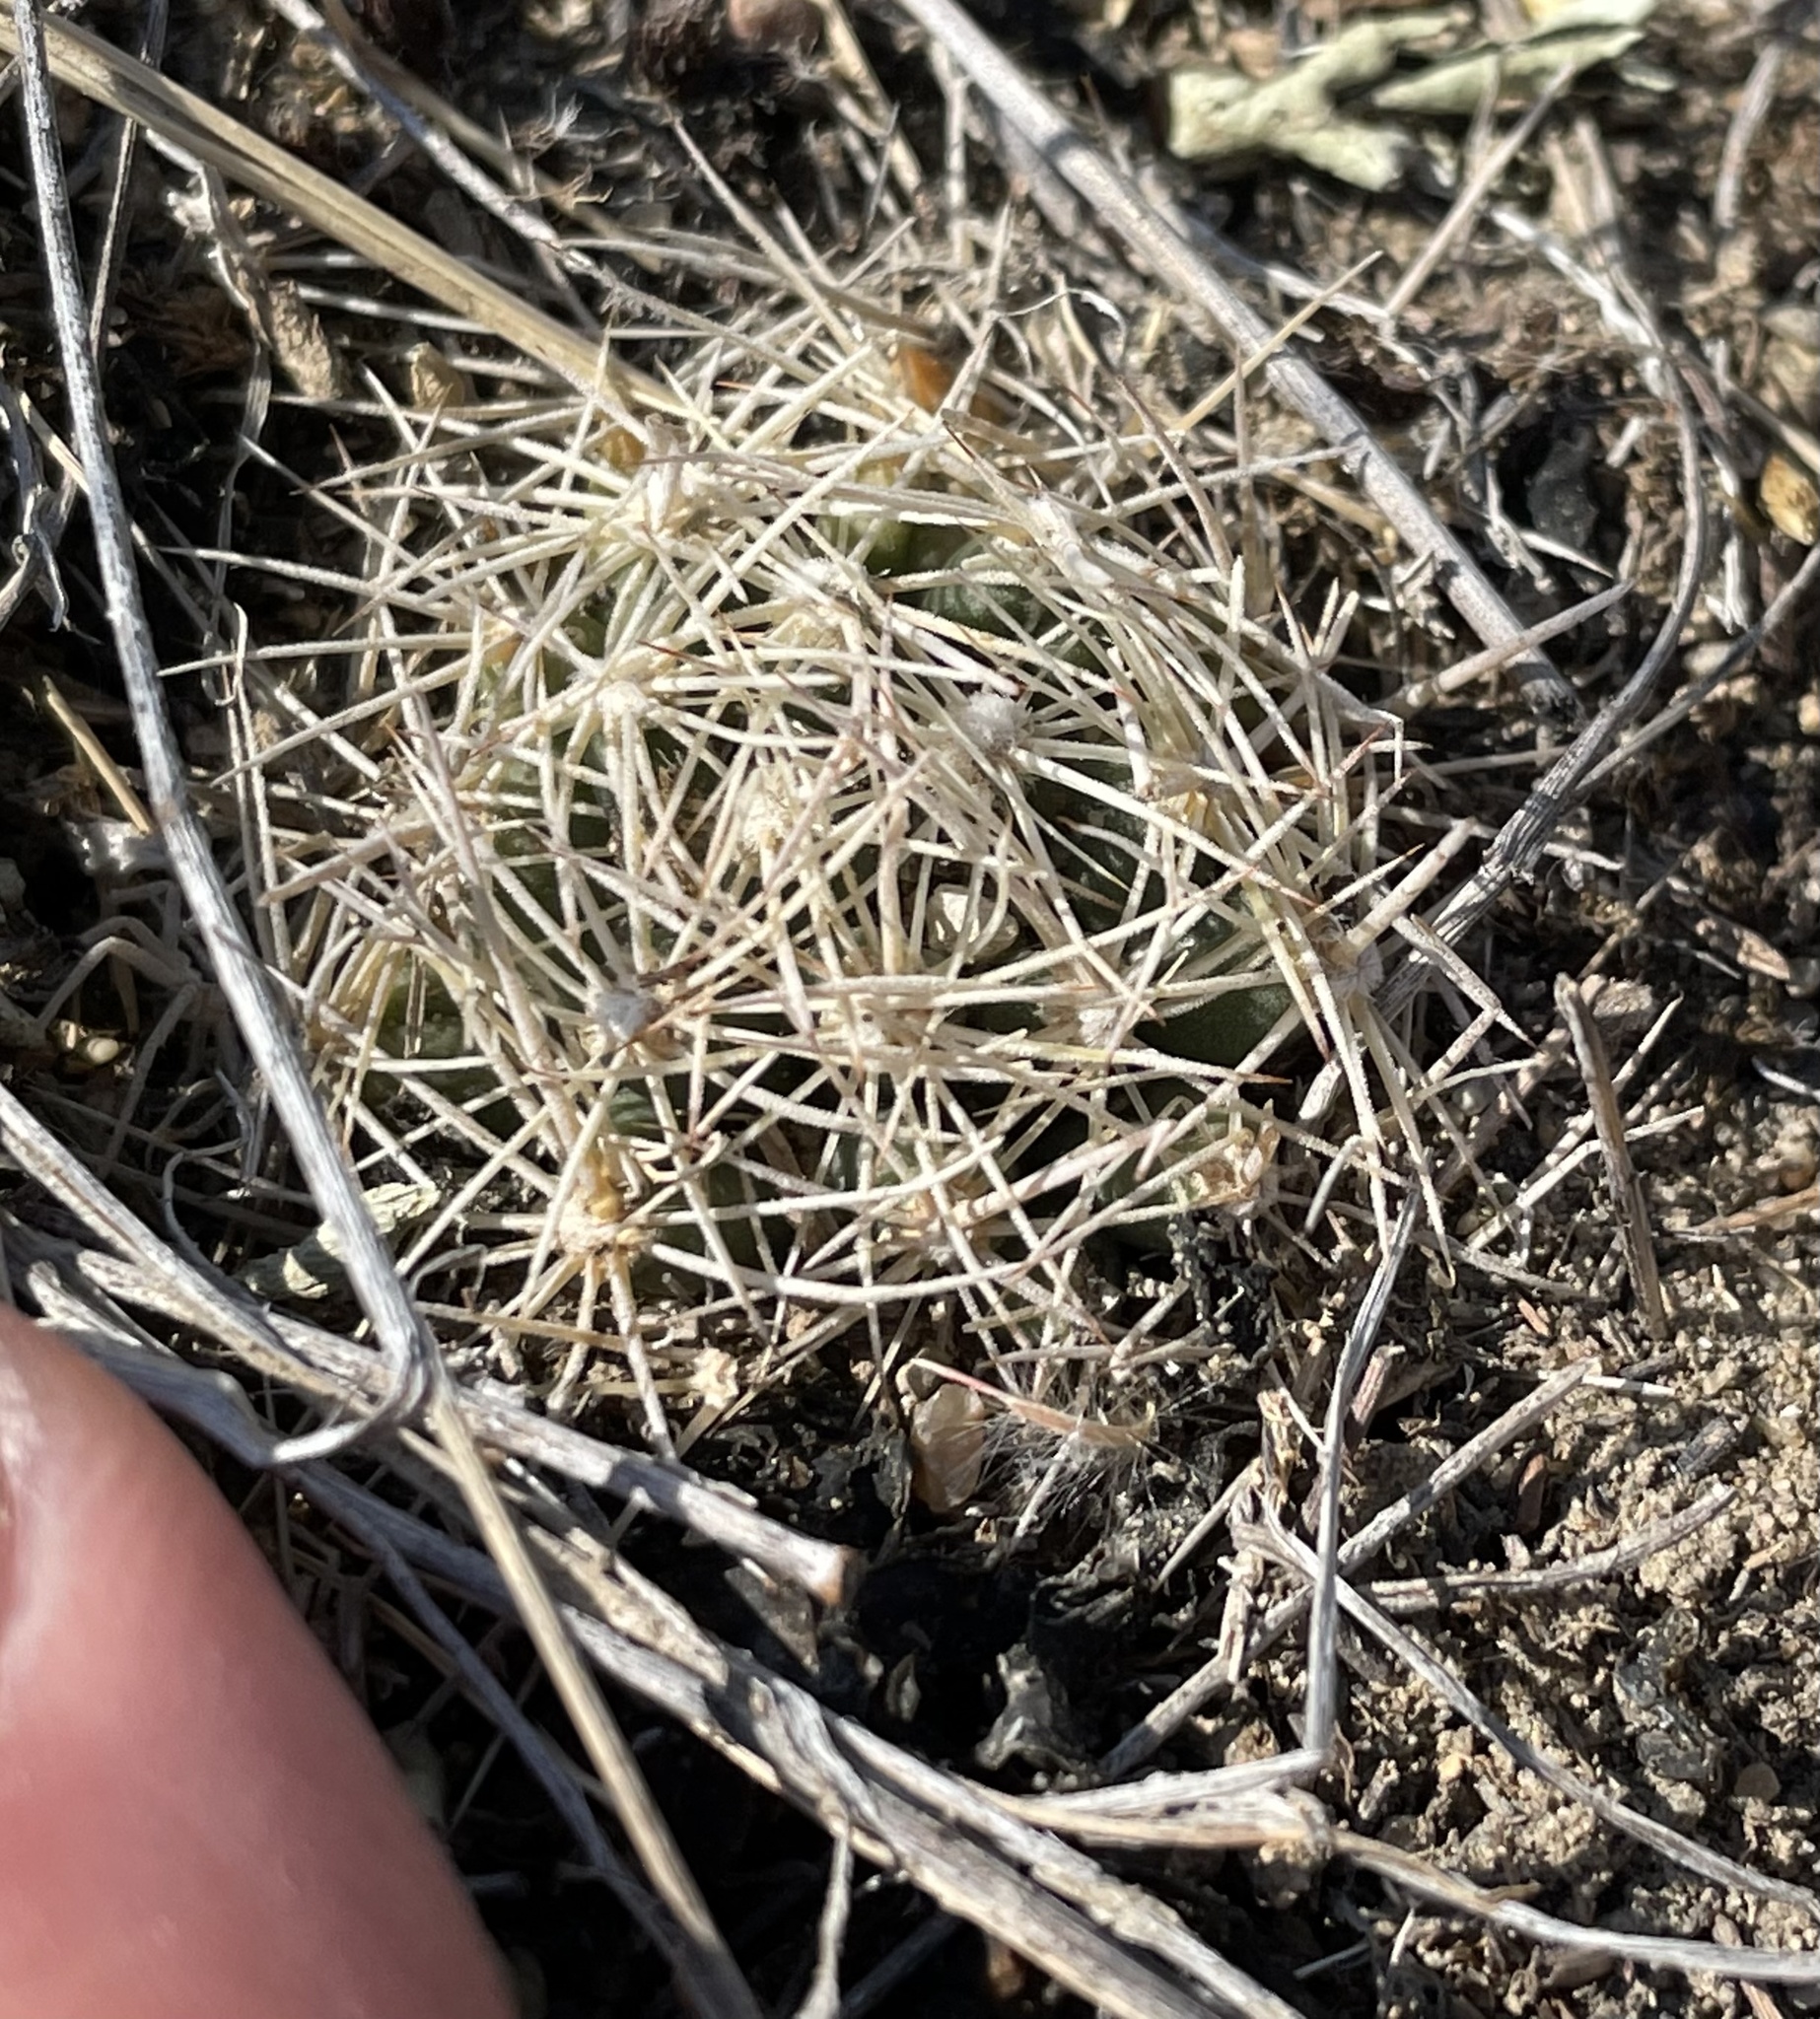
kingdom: Plantae
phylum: Tracheophyta
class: Magnoliopsida
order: Caryophyllales
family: Cactaceae
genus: Pelecyphora
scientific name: Pelecyphora missouriensis
